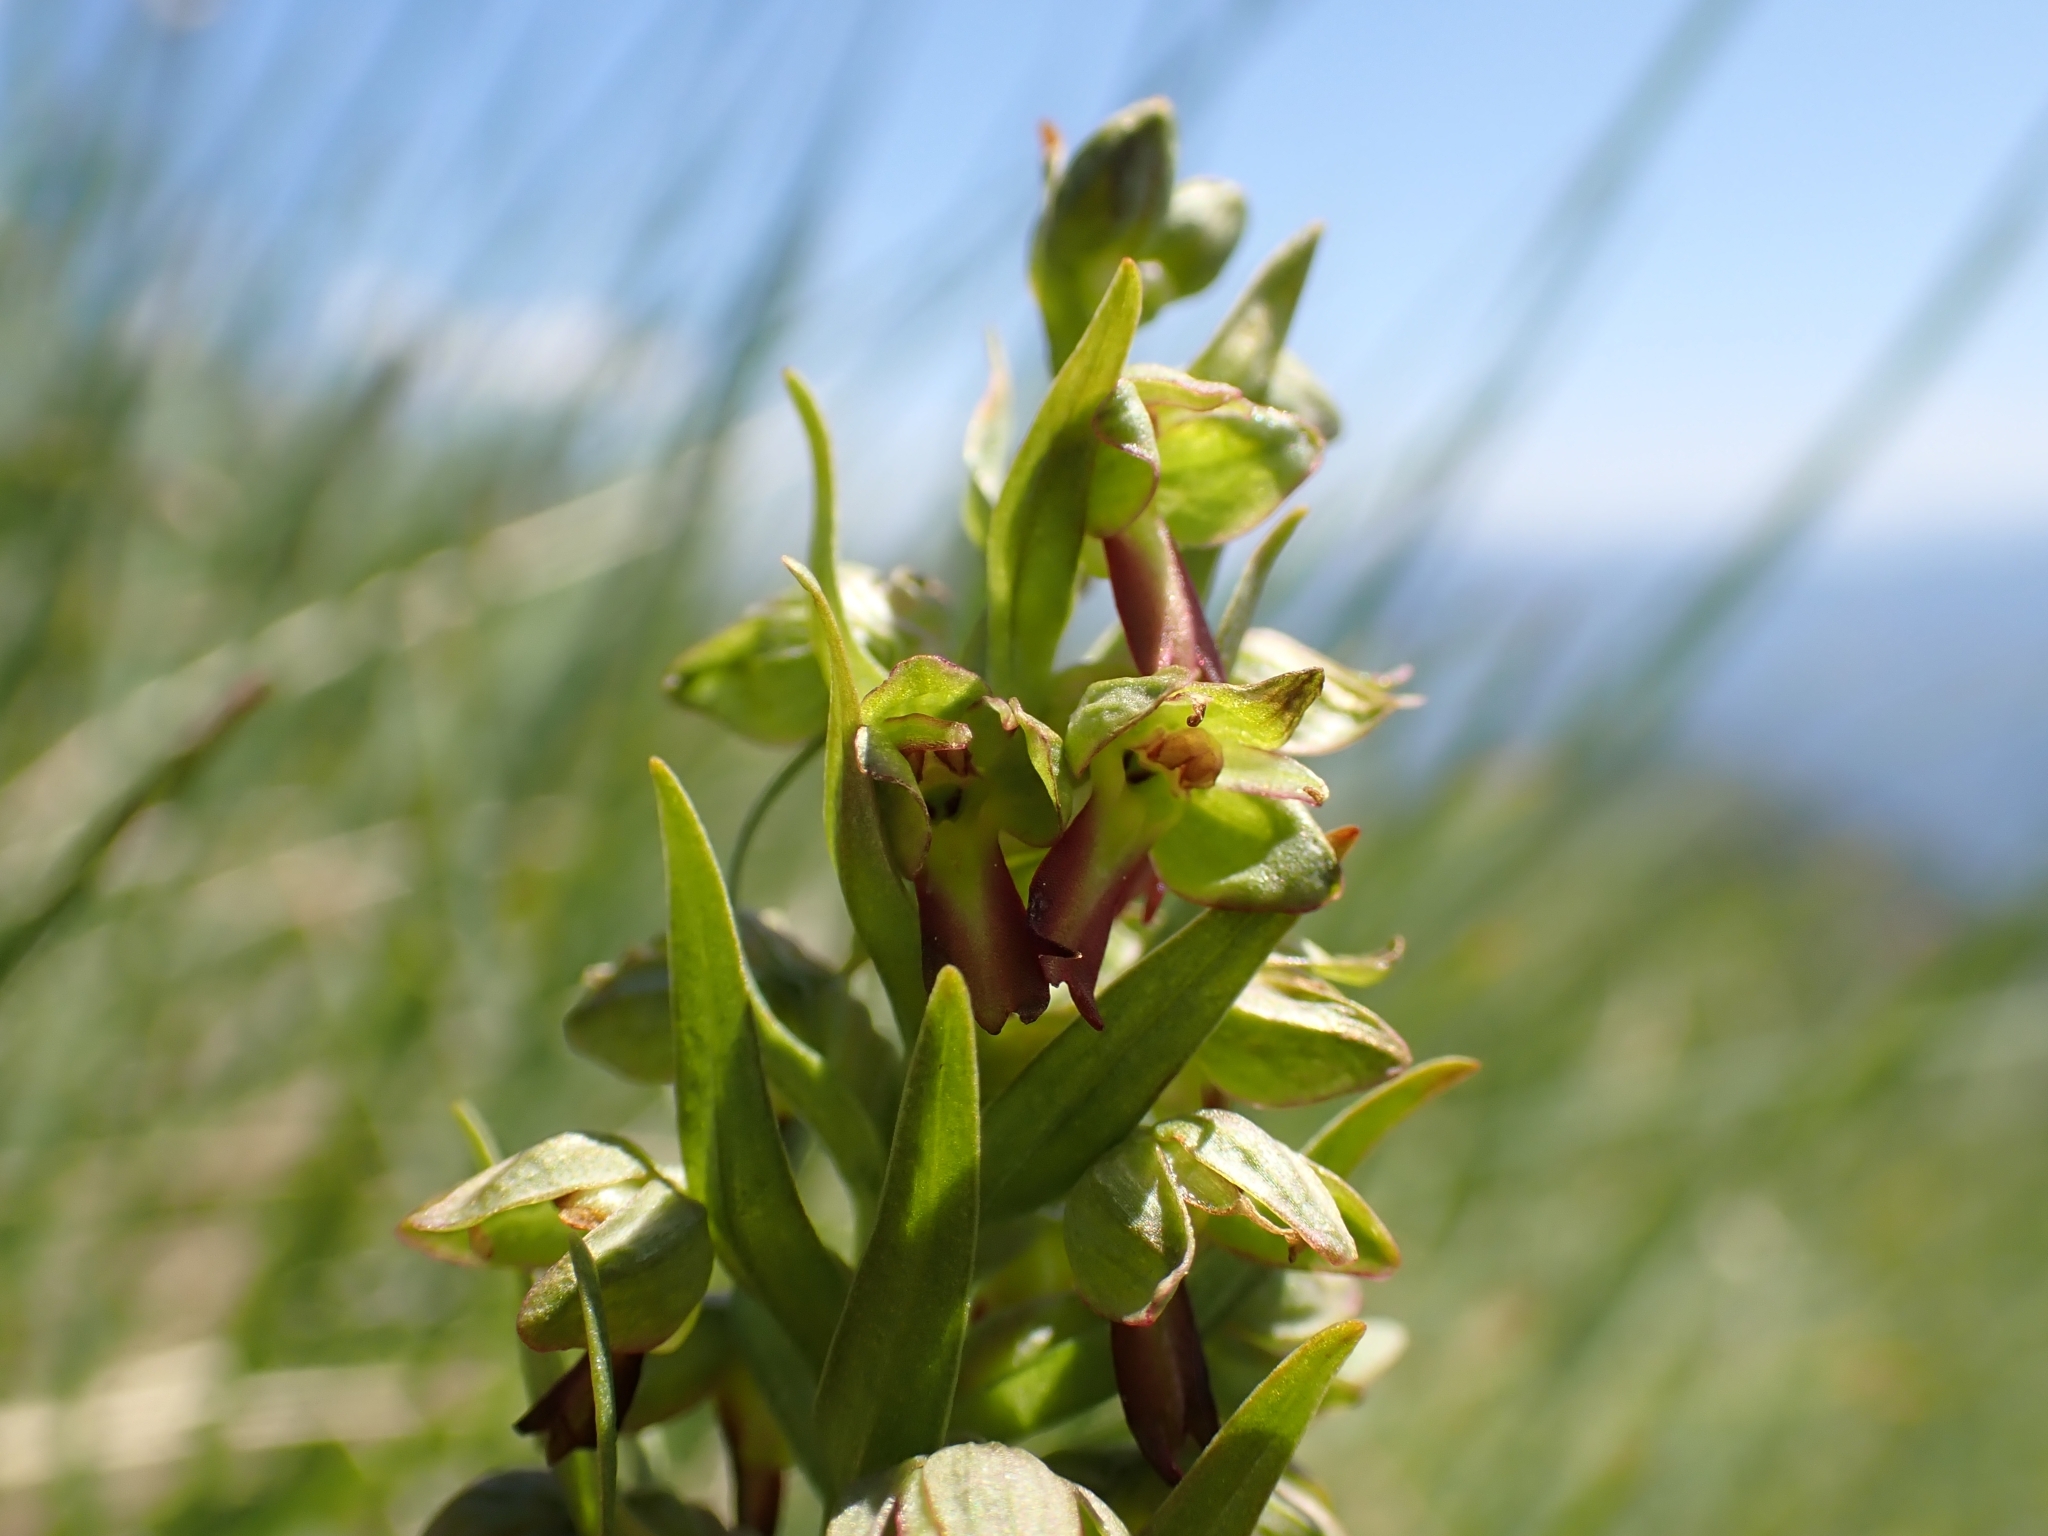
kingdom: Plantae
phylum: Tracheophyta
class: Liliopsida
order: Asparagales
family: Orchidaceae
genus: Dactylorhiza
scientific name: Dactylorhiza viridis
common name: Longbract frog orchid
